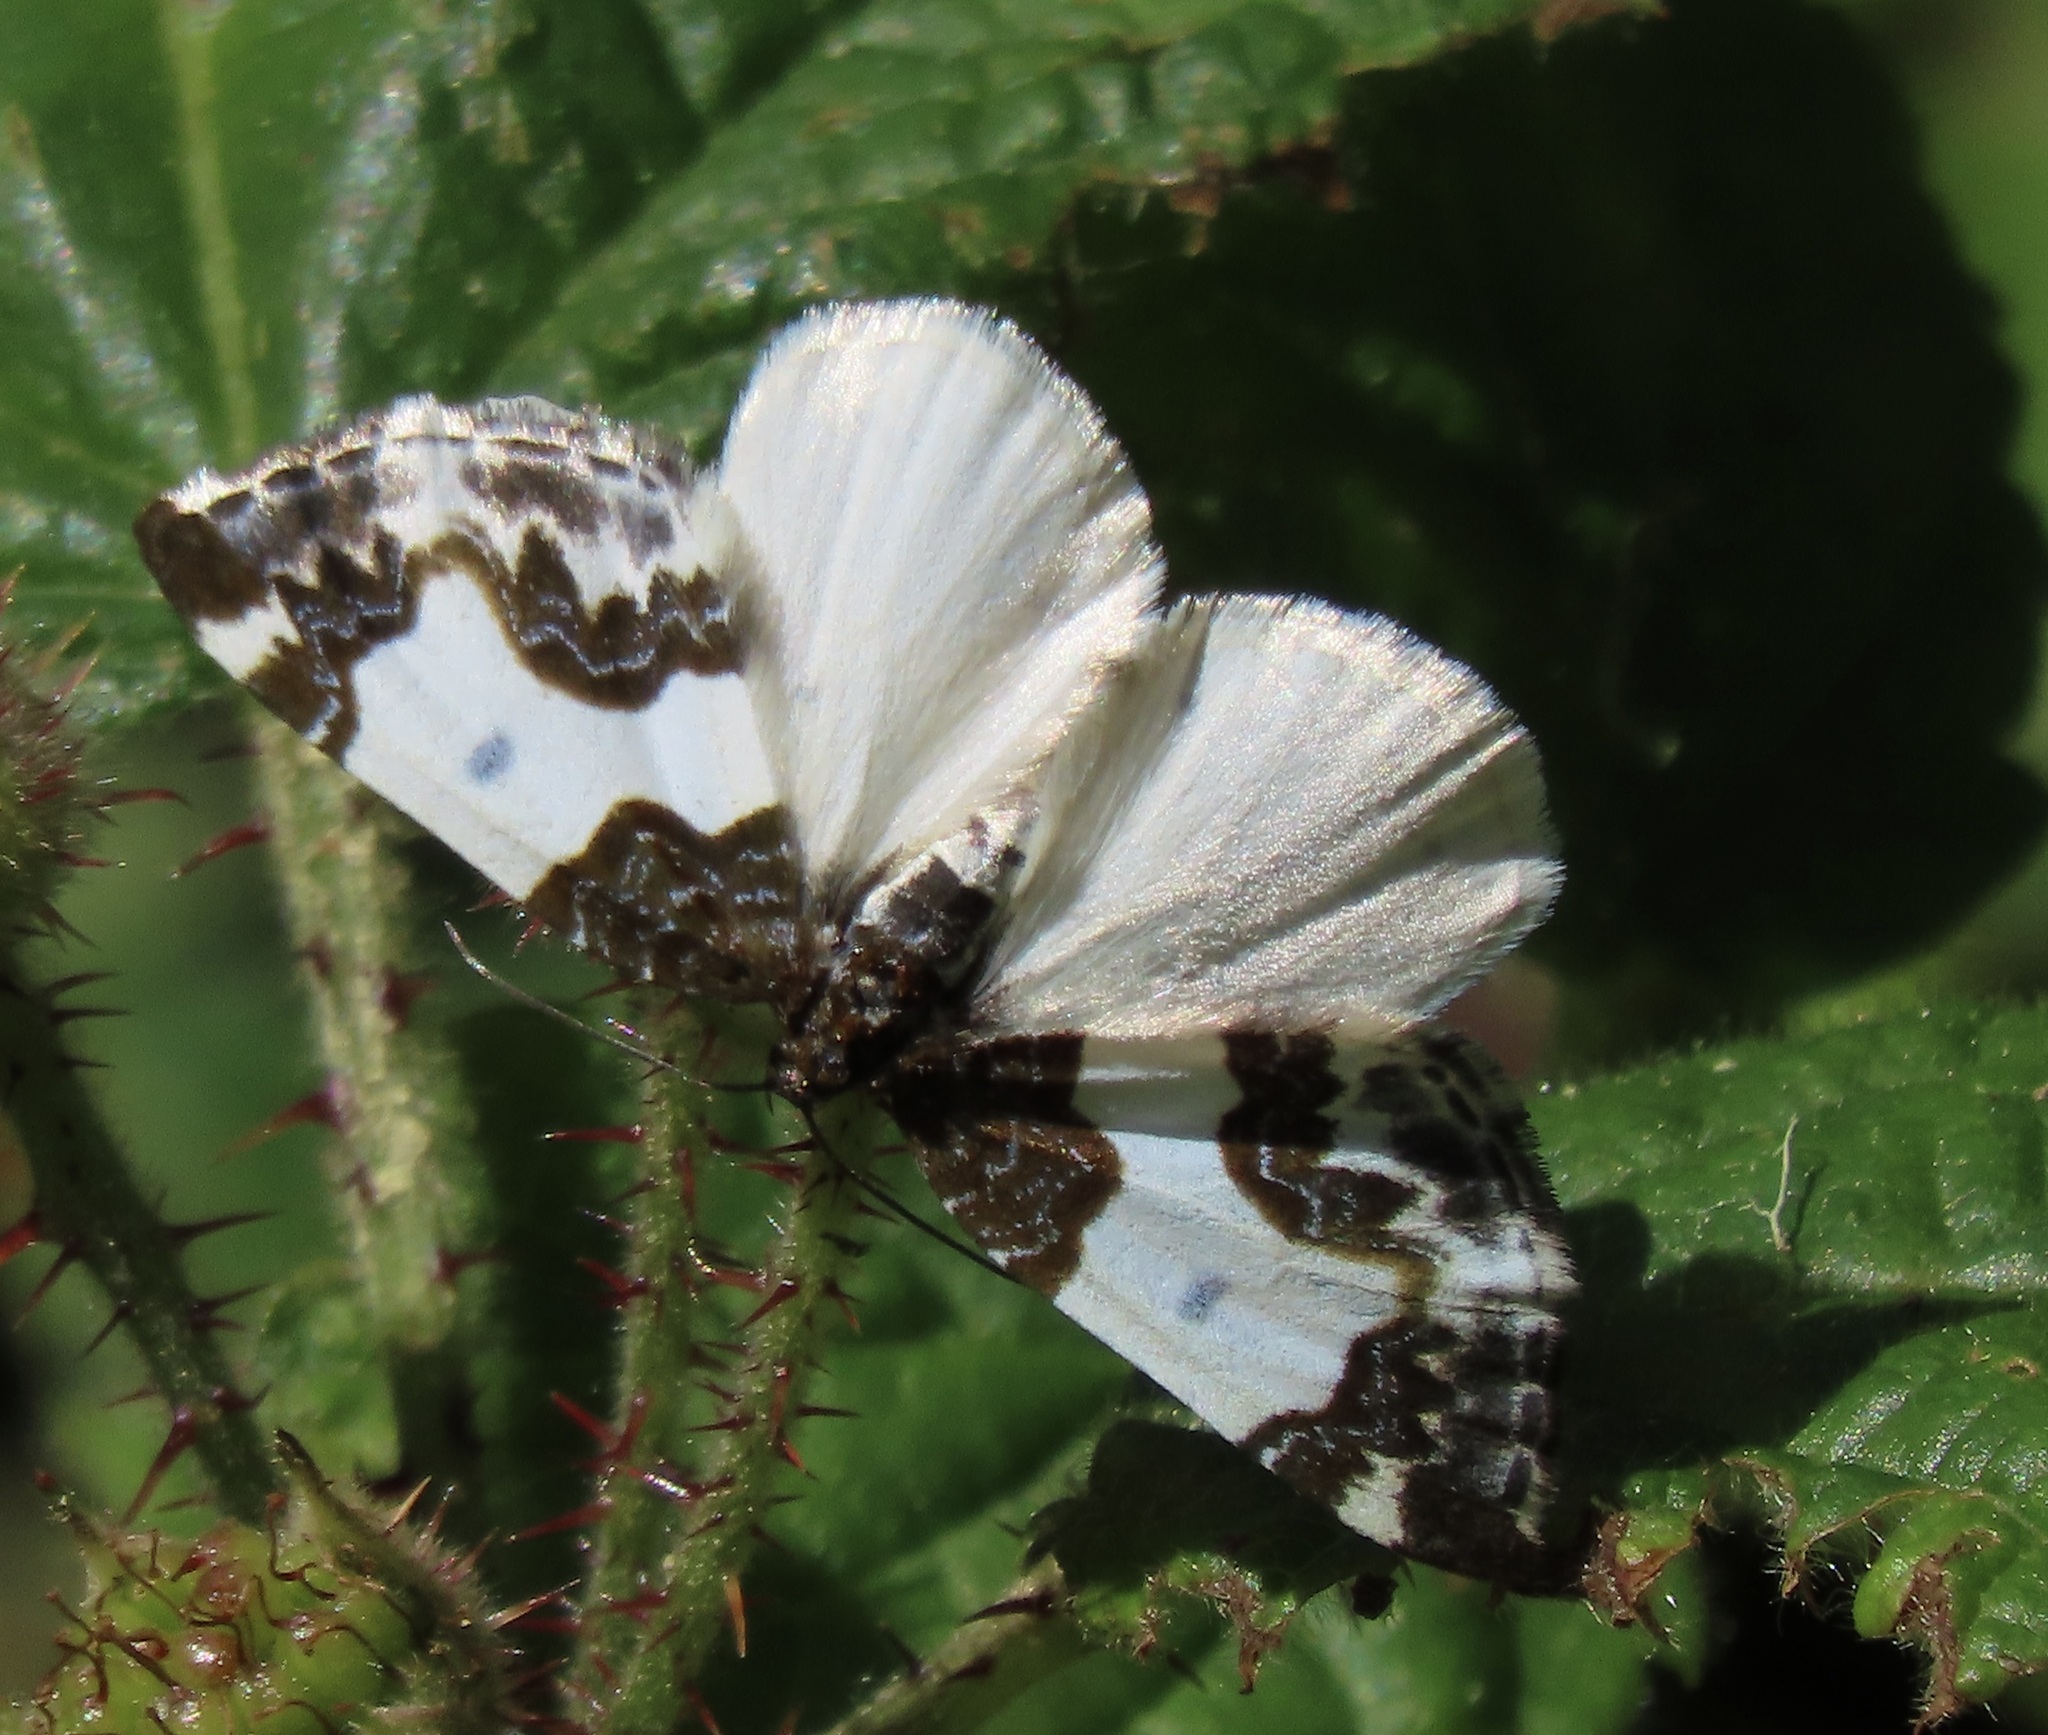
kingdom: Animalia
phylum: Arthropoda
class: Insecta
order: Lepidoptera
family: Geometridae
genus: Mesoleuca
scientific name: Mesoleuca gratulata
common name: Half-white carpet moth
